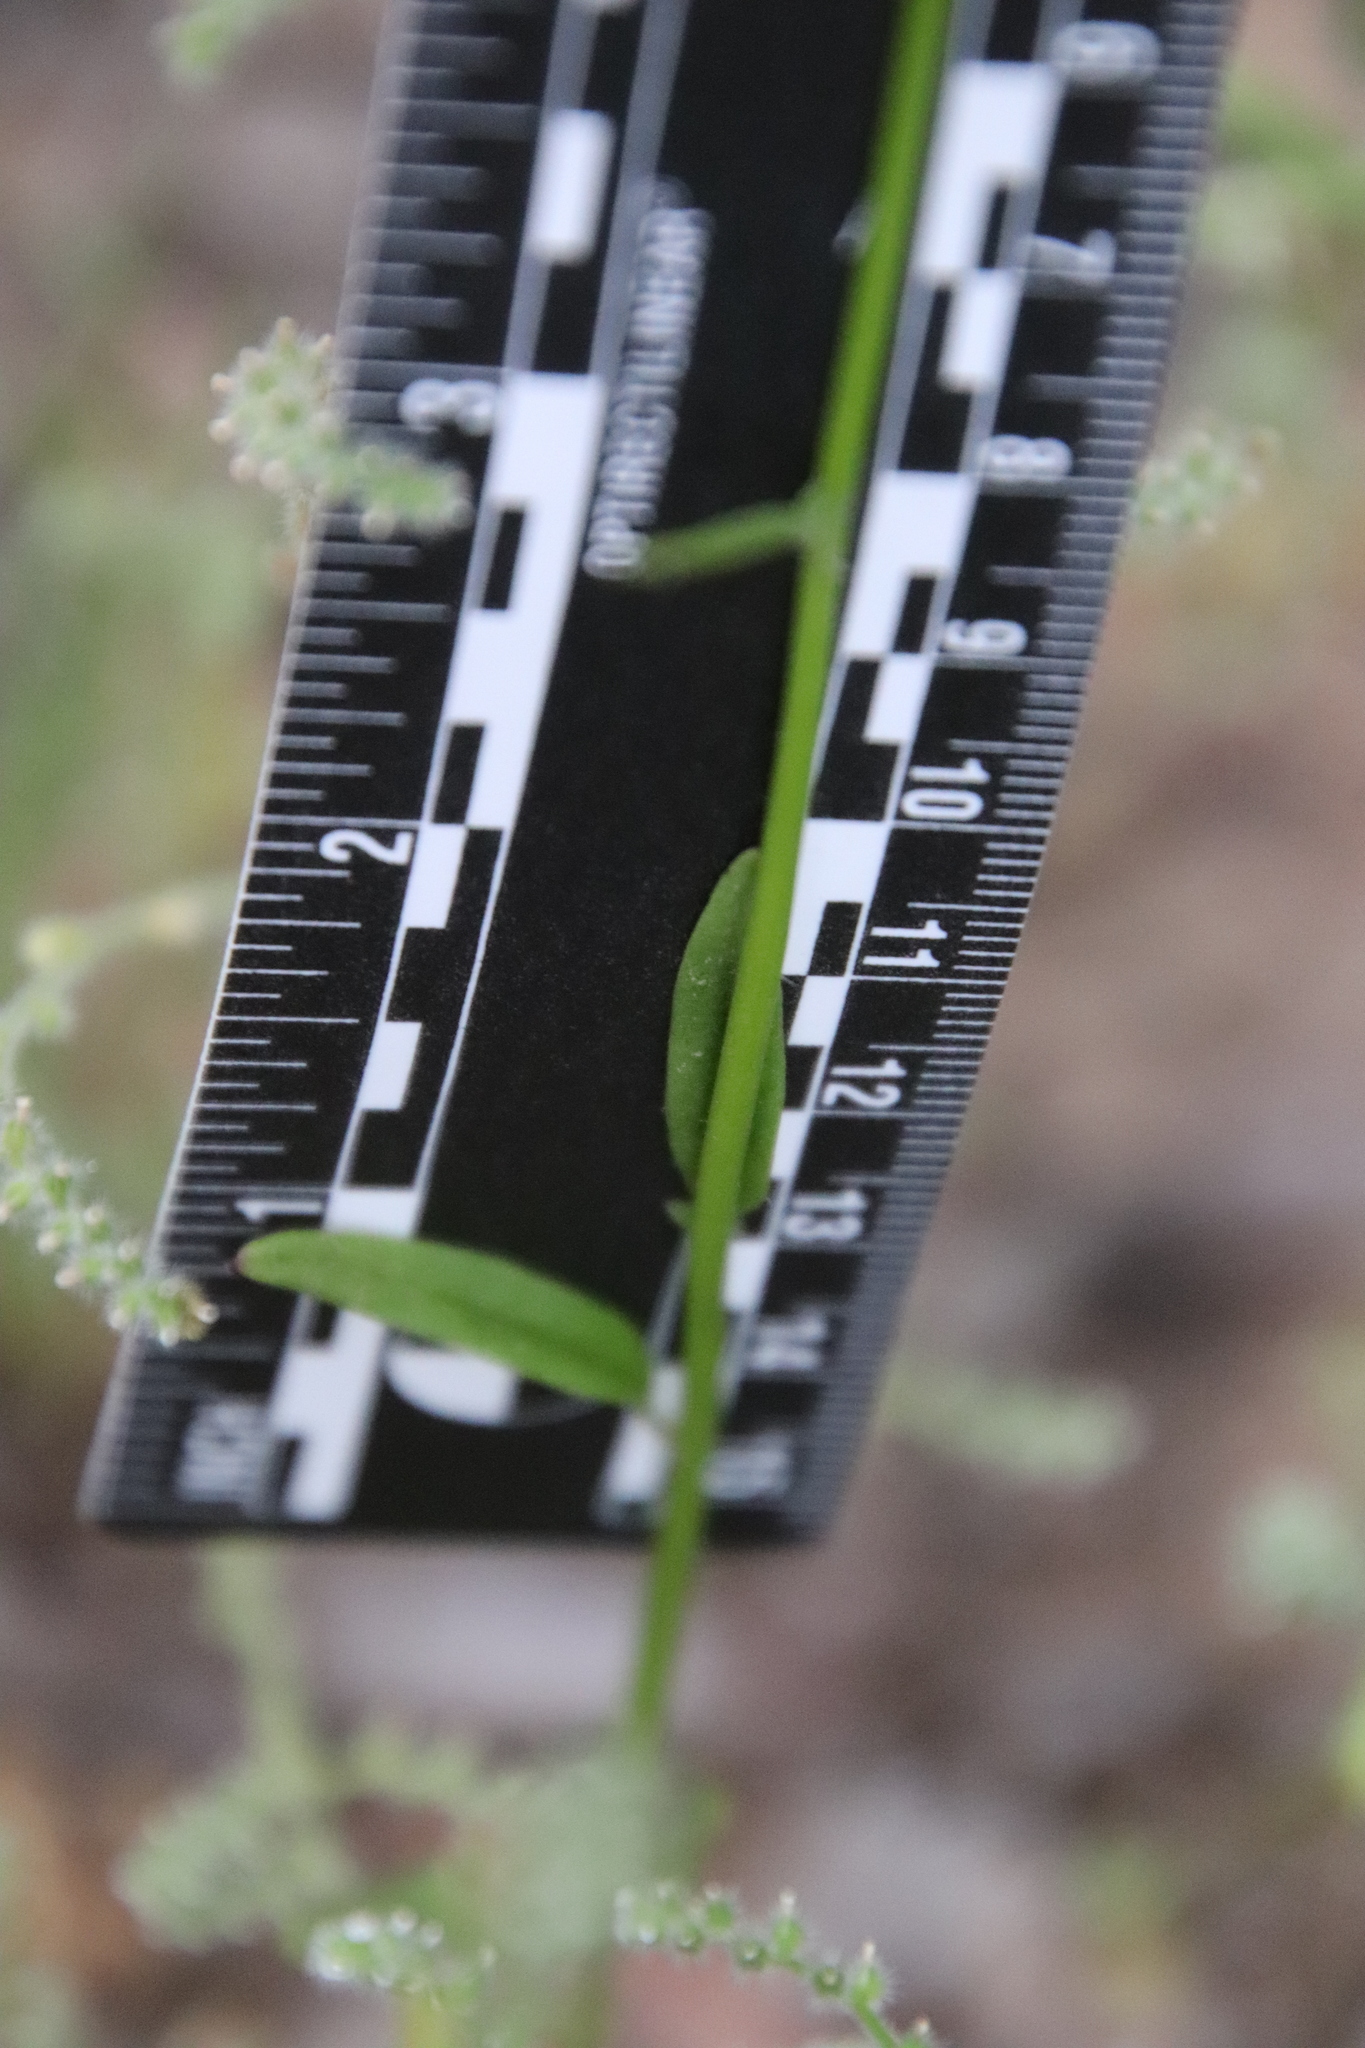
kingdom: Plantae
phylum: Tracheophyta
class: Magnoliopsida
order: Lamiales
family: Plantaginaceae
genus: Neogaerrhinum
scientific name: Neogaerrhinum strictum
